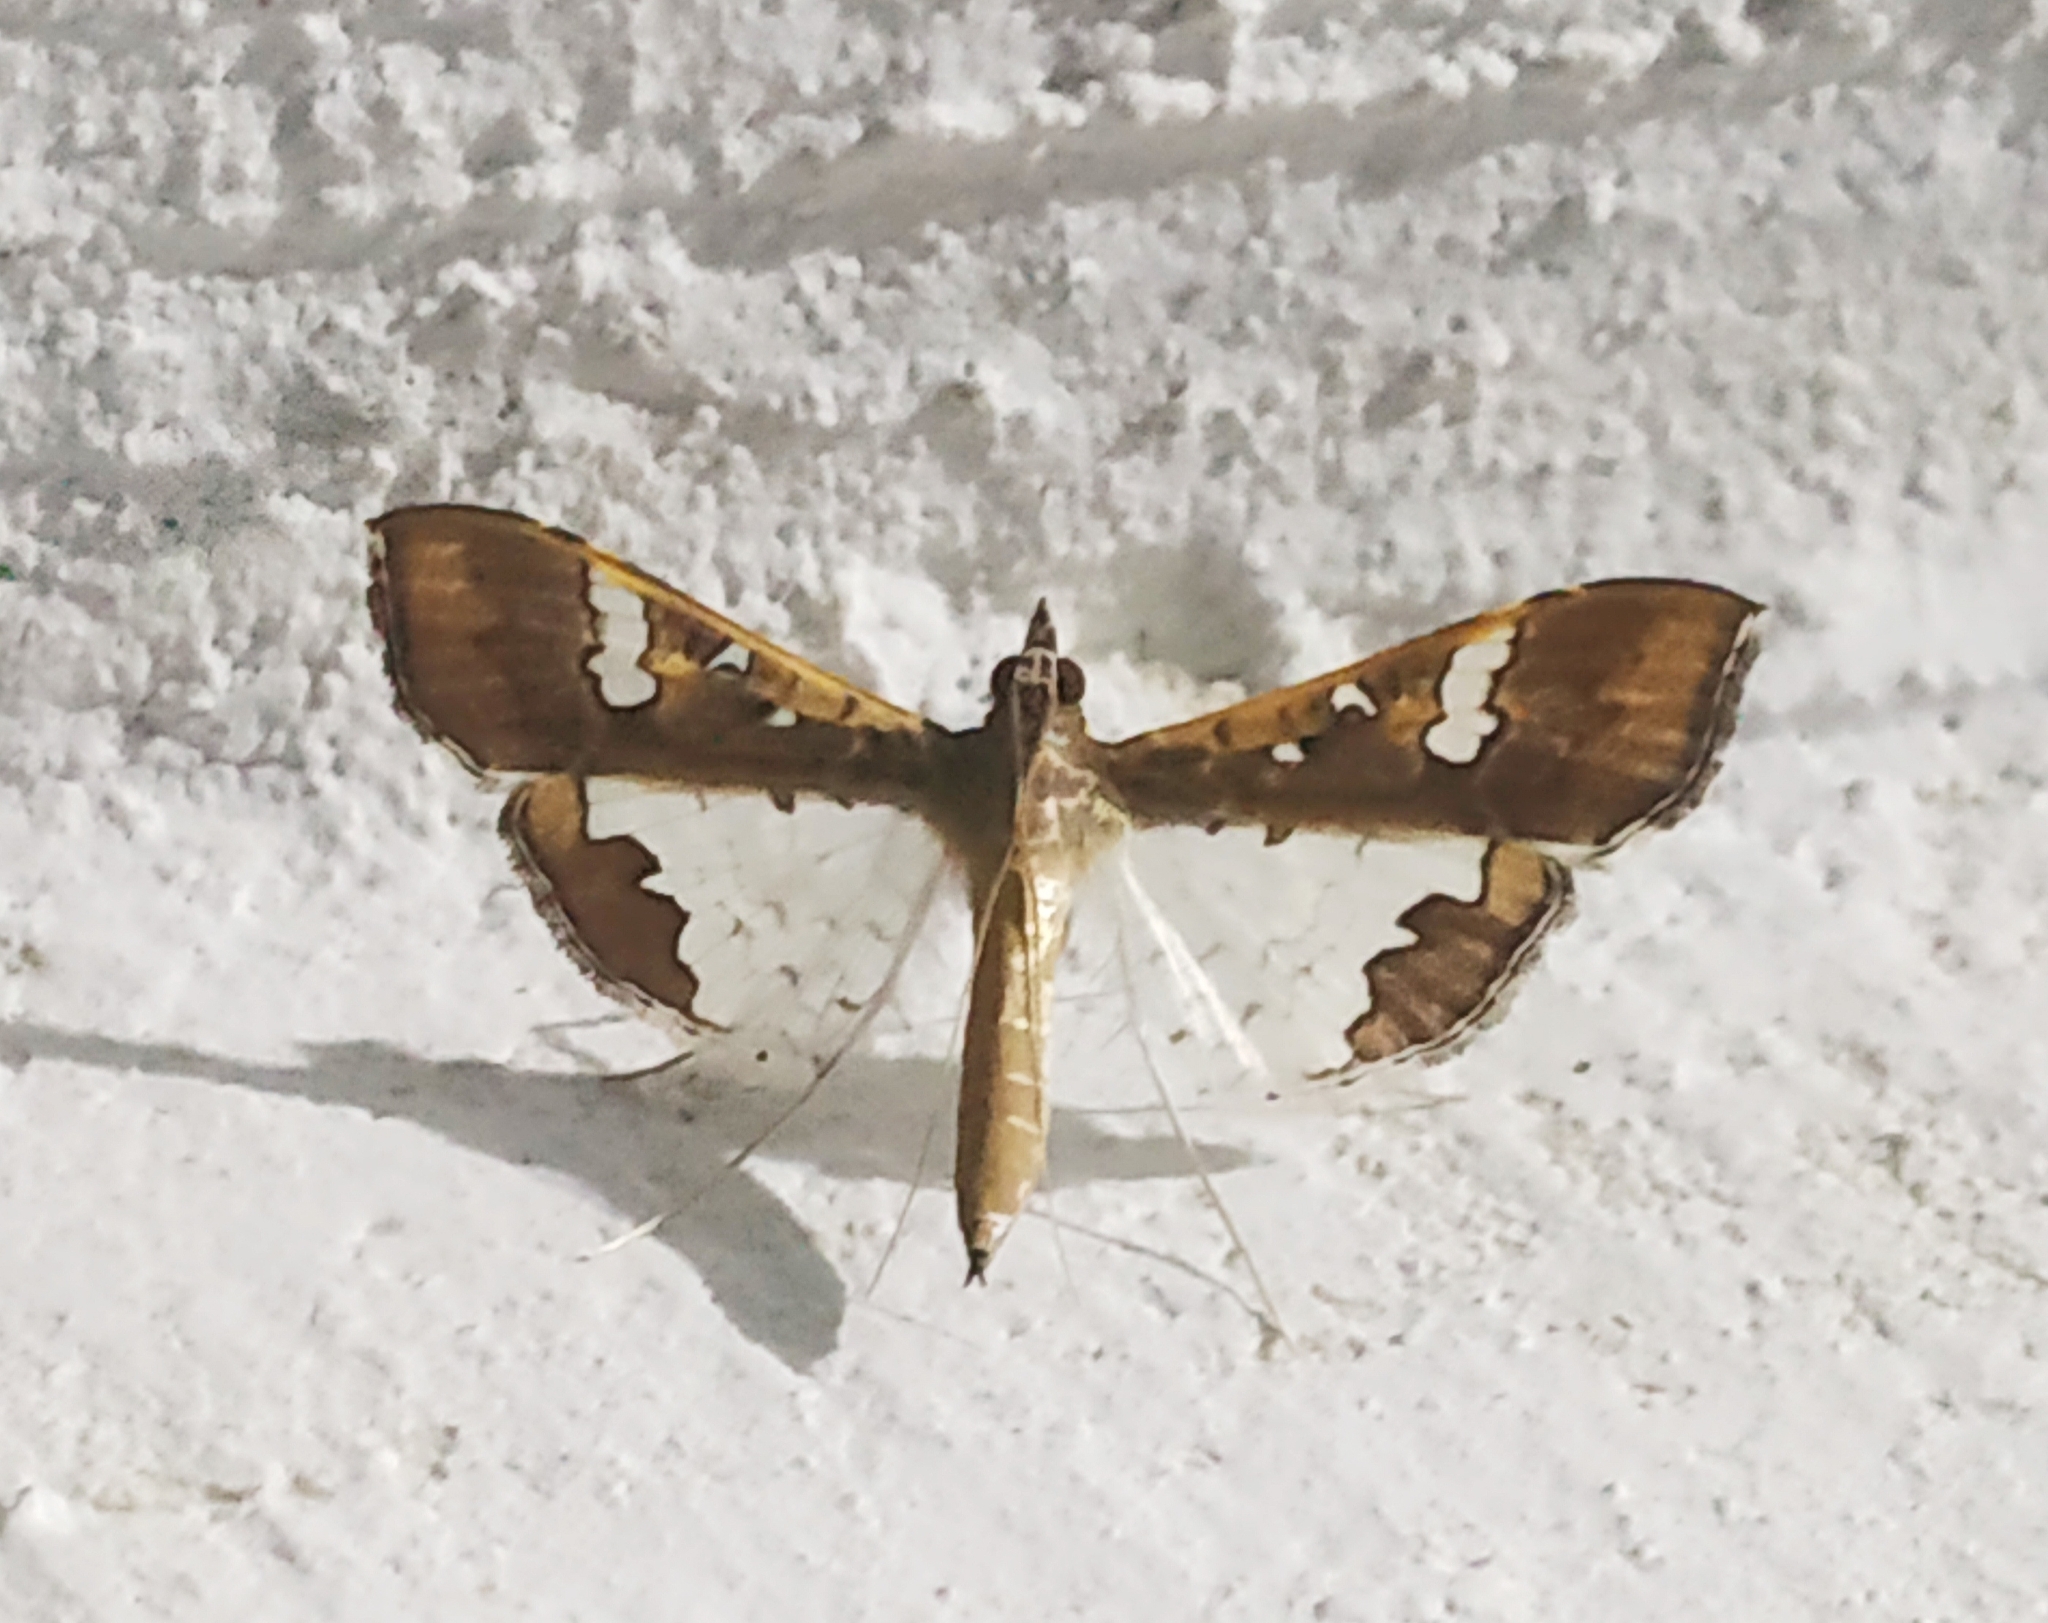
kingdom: Animalia
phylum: Arthropoda
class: Insecta
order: Lepidoptera
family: Crambidae
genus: Maruca
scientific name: Maruca vitrata
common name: Maruca pod borer
